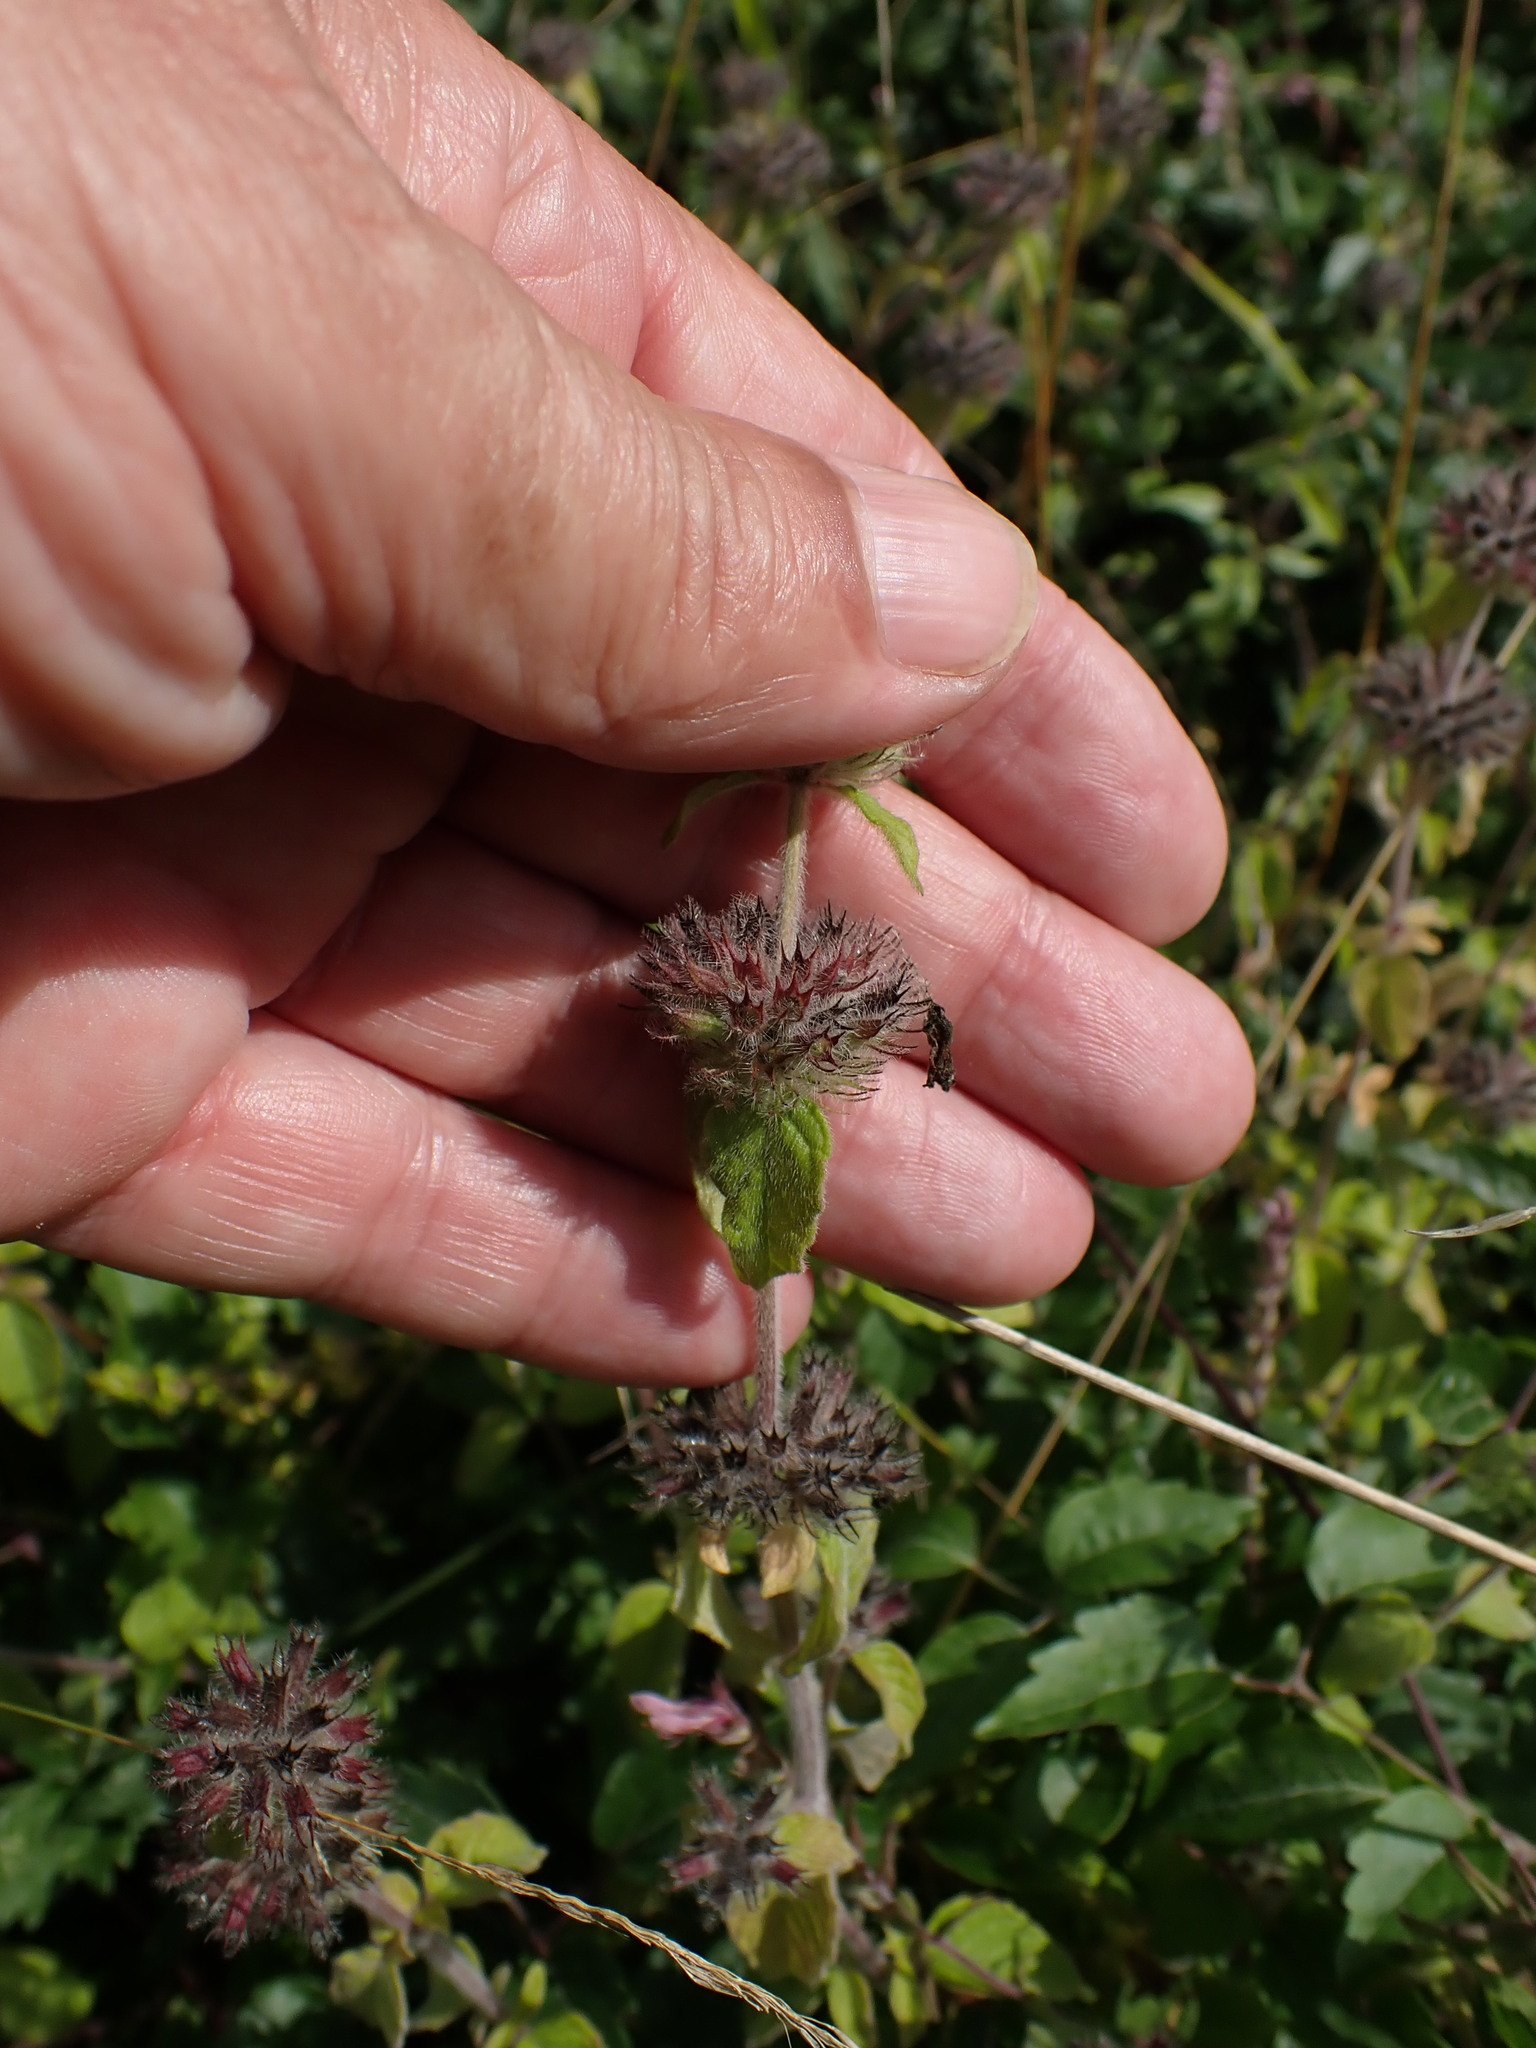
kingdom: Plantae
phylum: Tracheophyta
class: Magnoliopsida
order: Lamiales
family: Lamiaceae
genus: Clinopodium
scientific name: Clinopodium vulgare
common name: Wild basil
